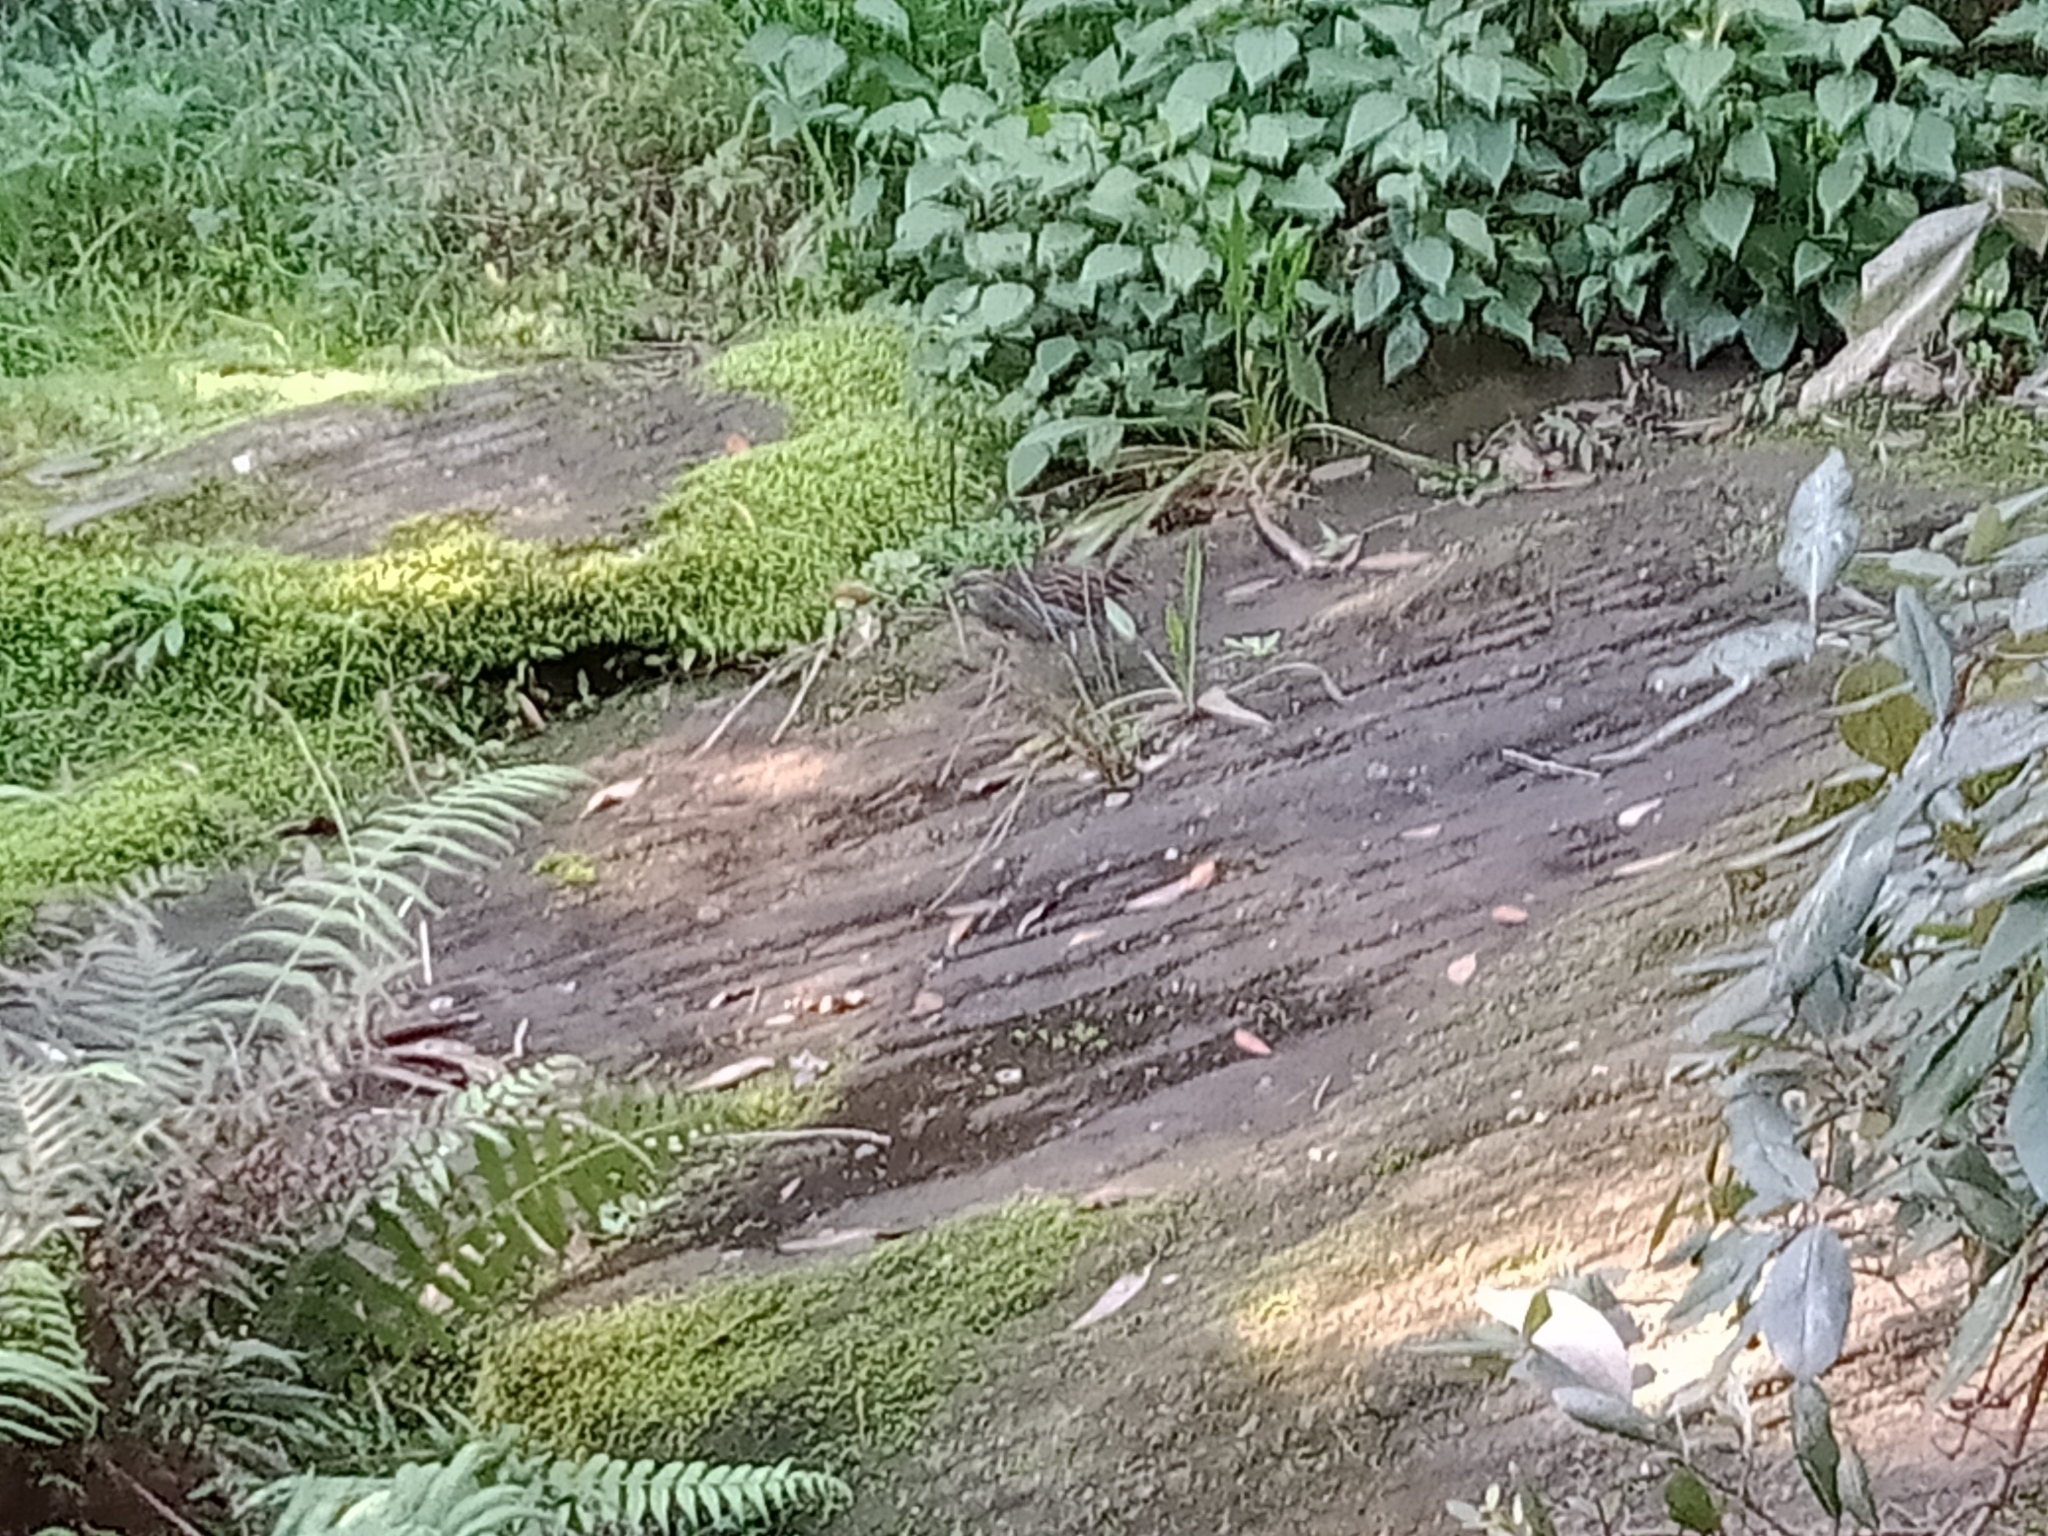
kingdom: Animalia
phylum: Chordata
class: Aves
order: Gruiformes
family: Rallidae
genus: Gallirallus
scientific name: Gallirallus philippensis
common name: Buff-banded rail
